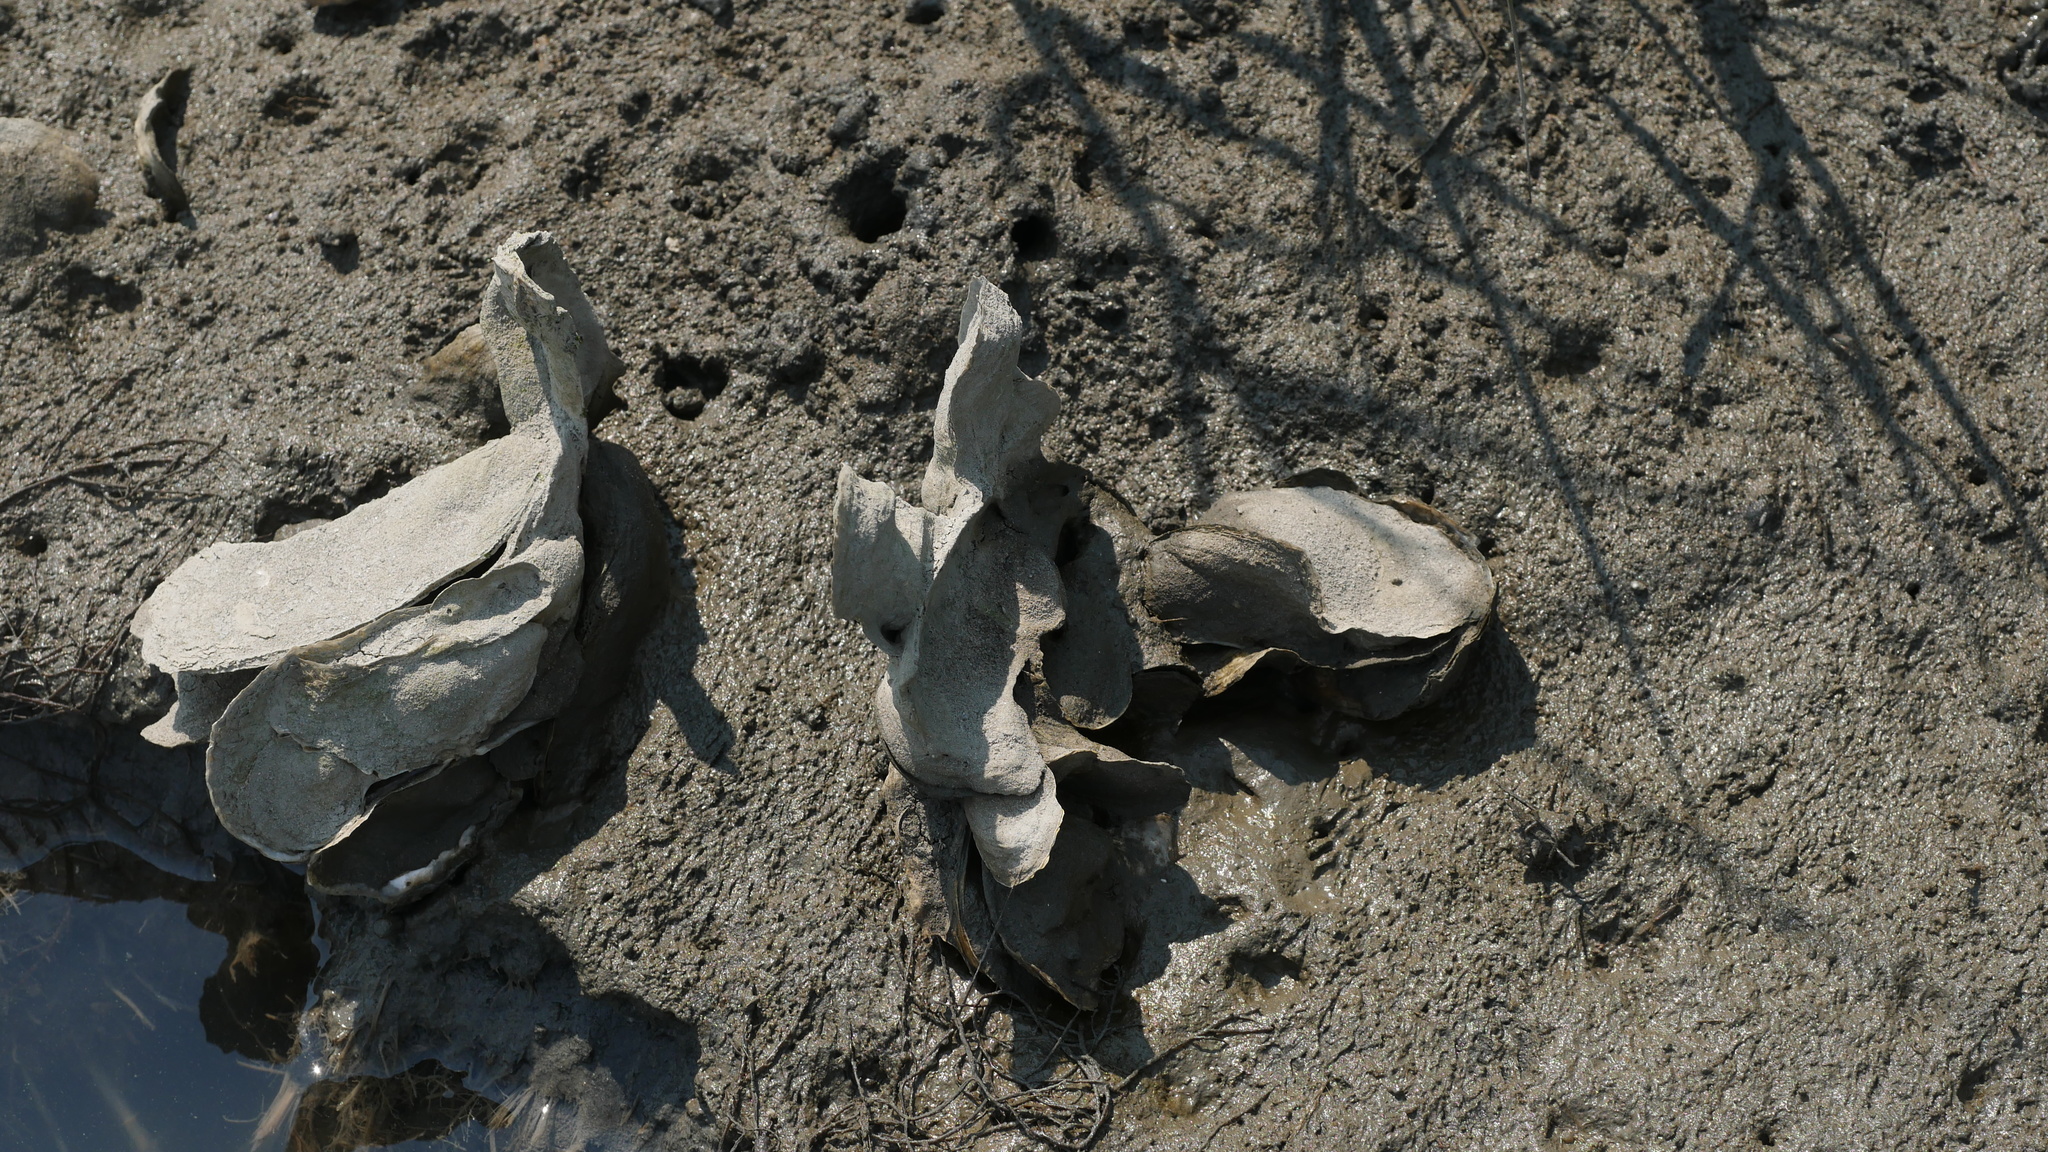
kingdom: Animalia
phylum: Mollusca
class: Bivalvia
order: Ostreida
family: Ostreidae
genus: Crassostrea
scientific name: Crassostrea virginica
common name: American oyster
